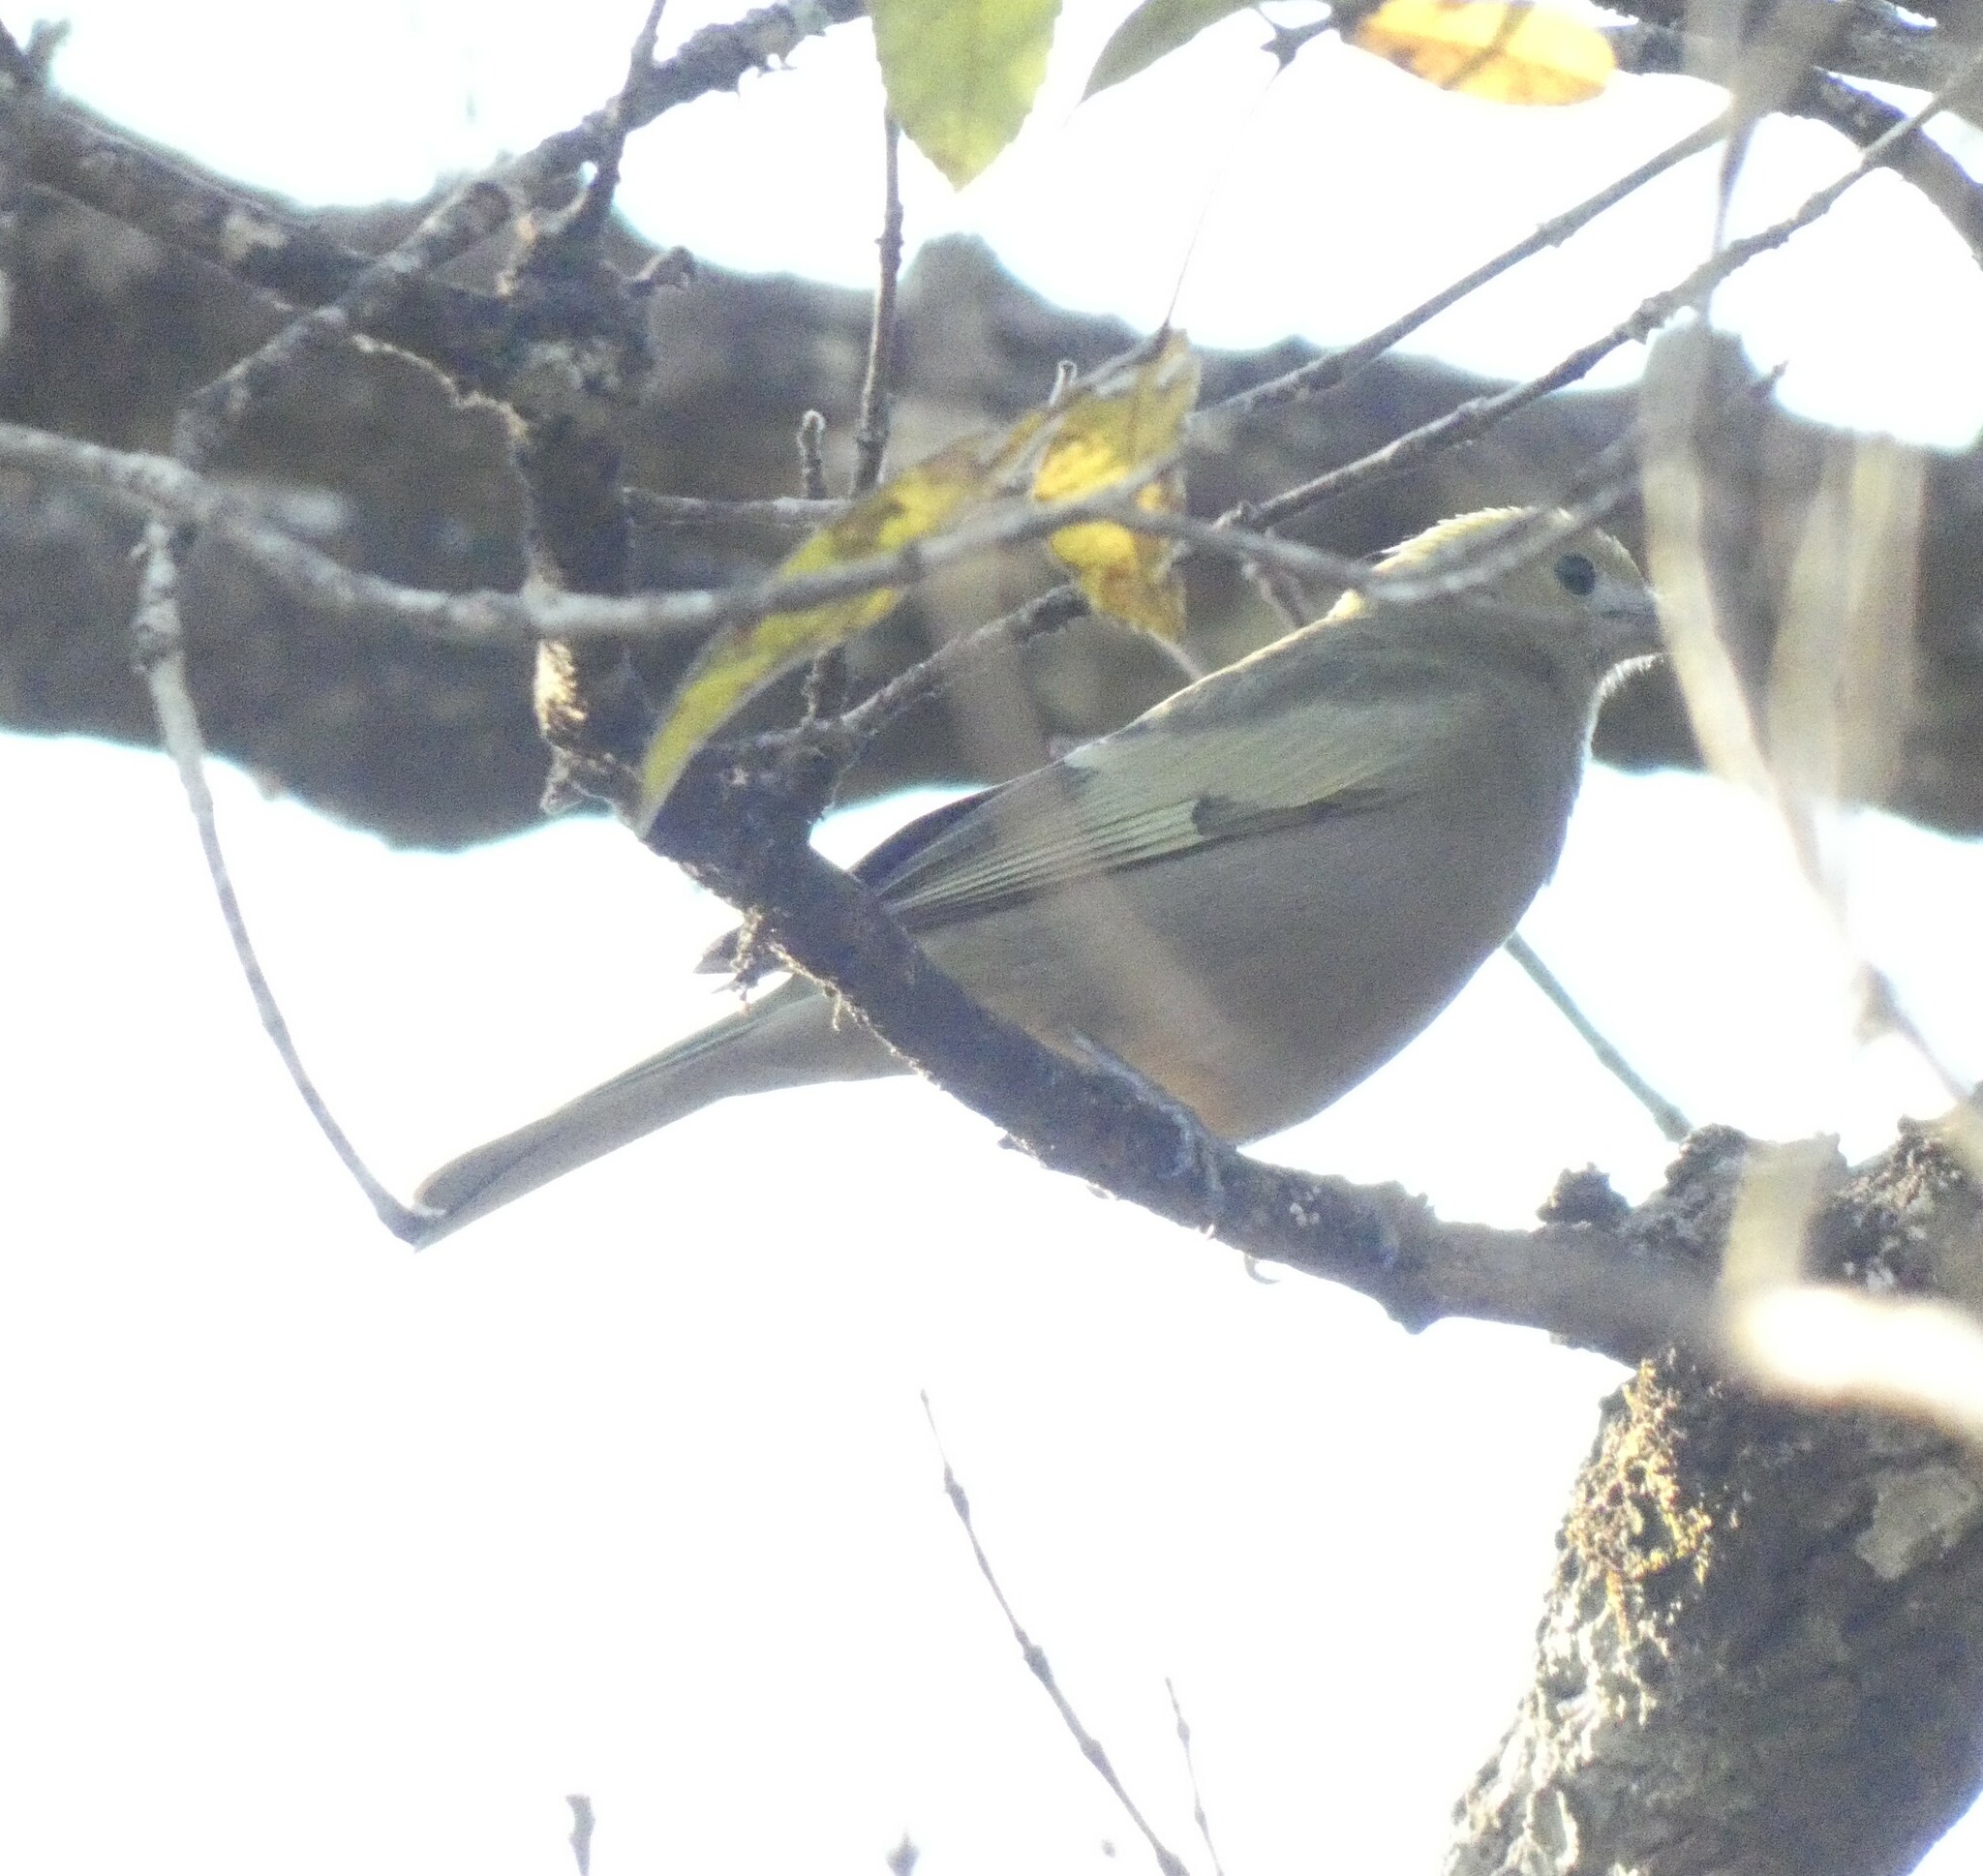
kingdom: Animalia
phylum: Chordata
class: Aves
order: Passeriformes
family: Thraupidae
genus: Thraupis
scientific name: Thraupis palmarum
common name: Palm tanager
